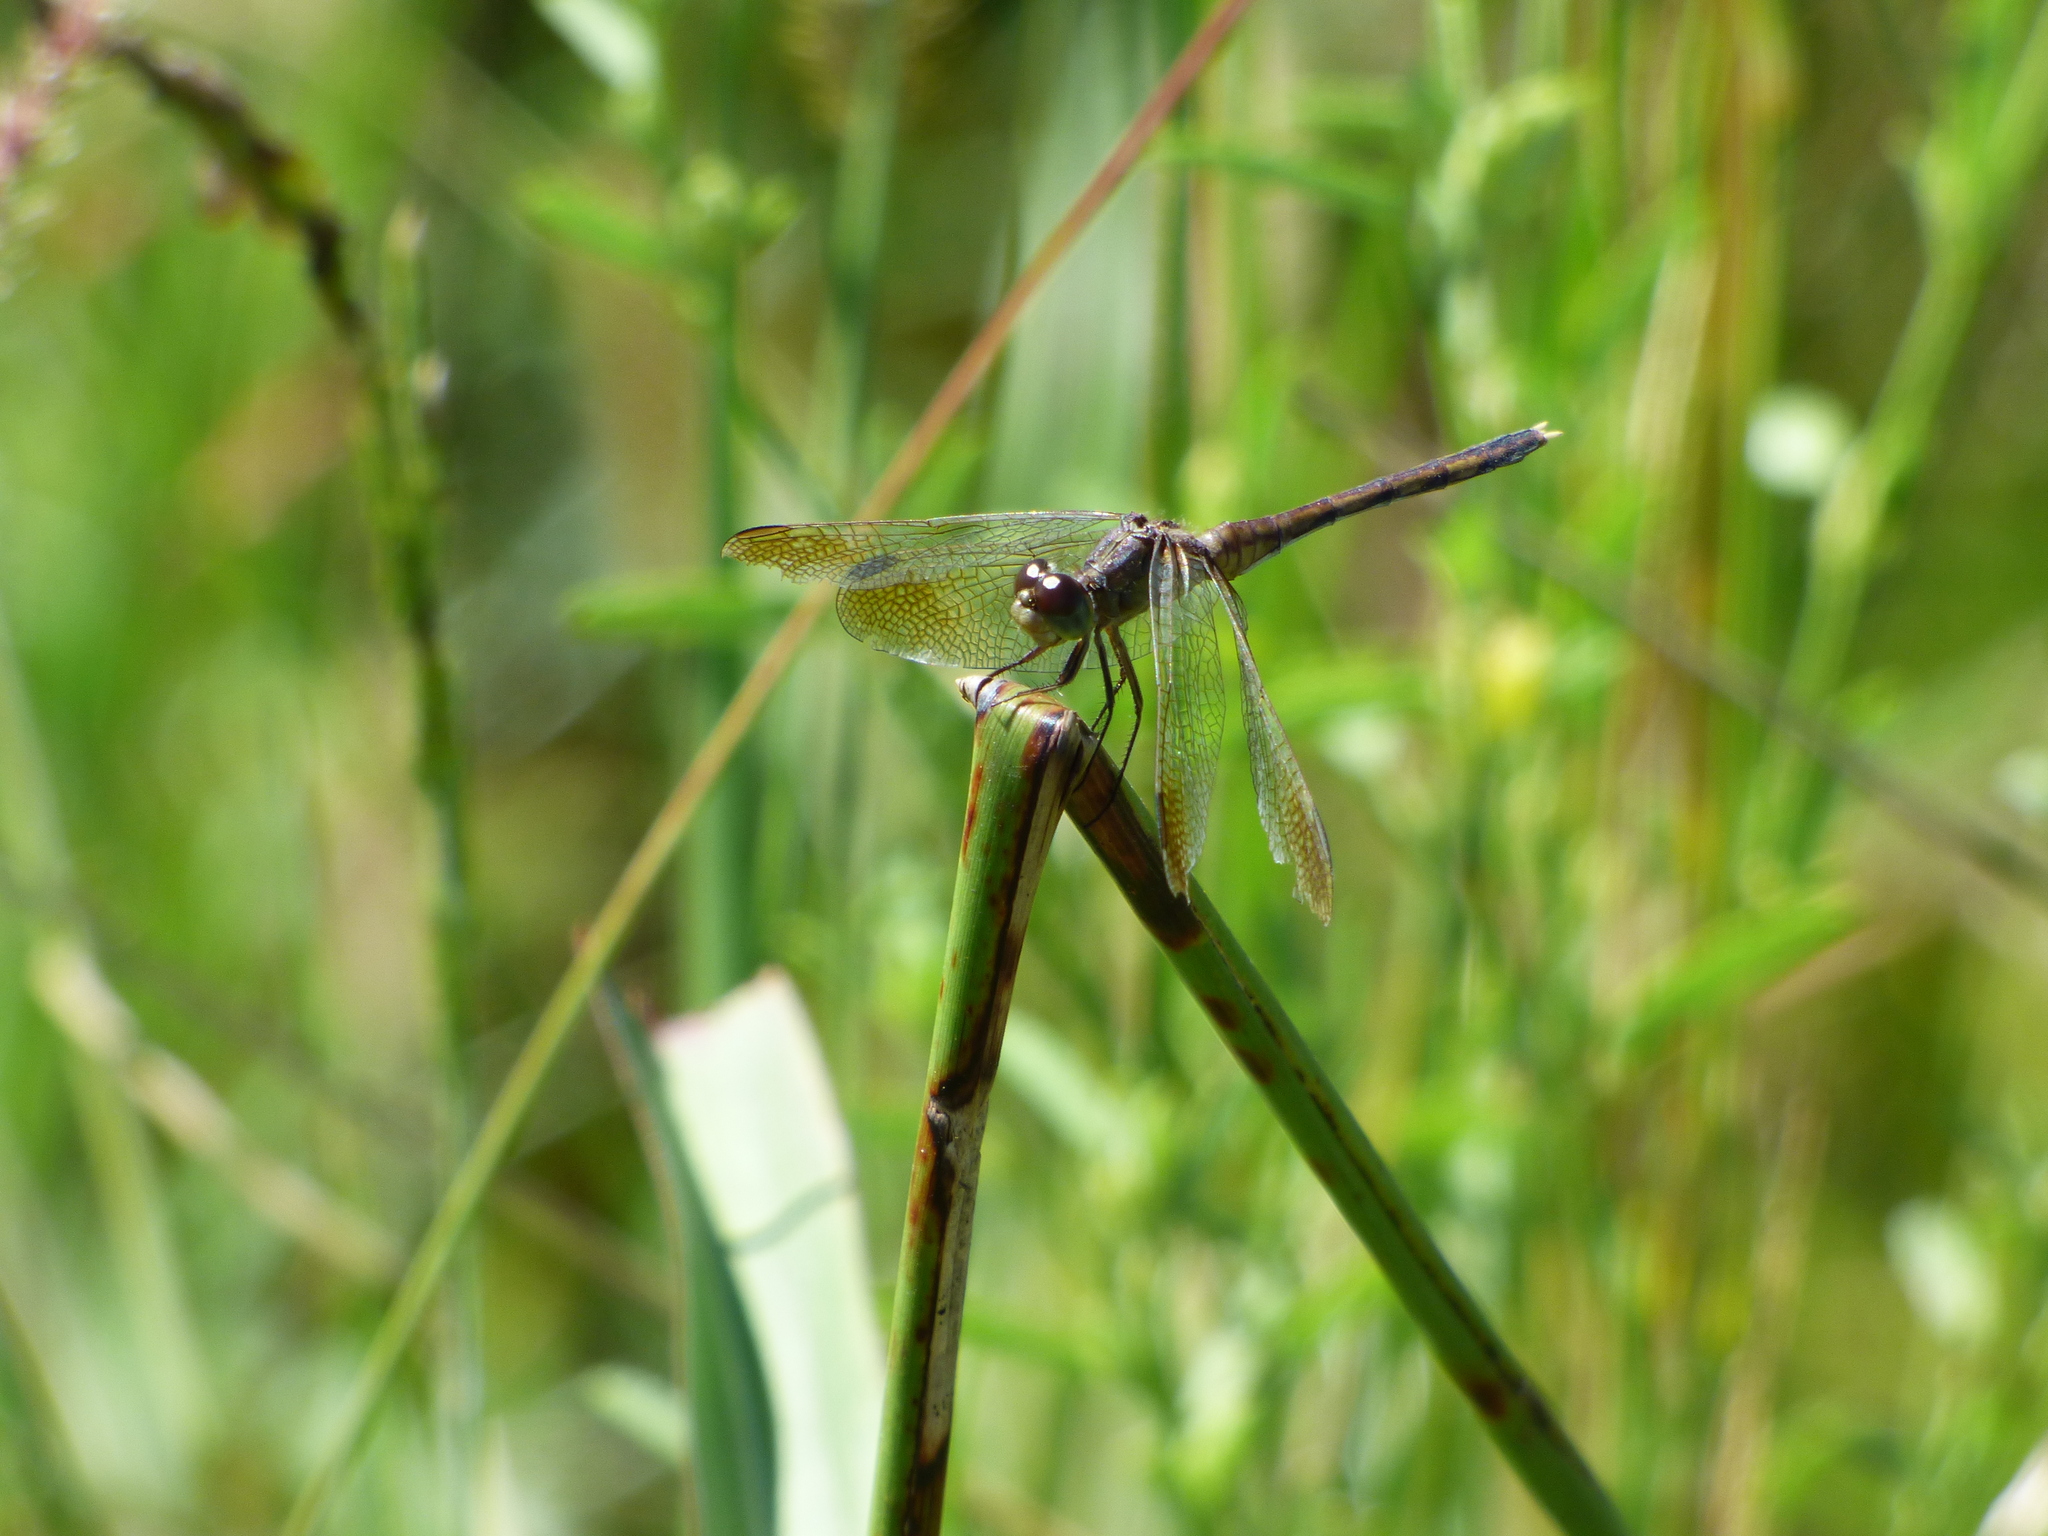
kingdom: Animalia
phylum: Arthropoda
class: Insecta
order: Odonata
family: Libellulidae
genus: Erythrodiplax
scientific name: Erythrodiplax nigricans
